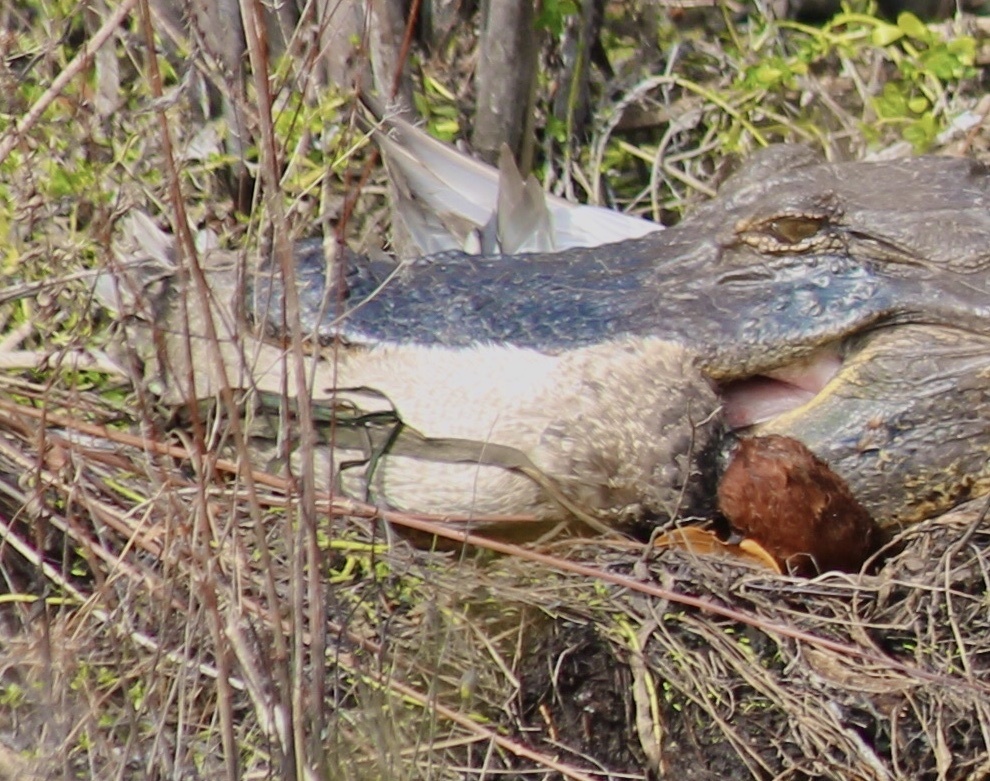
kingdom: Animalia
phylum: Chordata
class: Aves
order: Anseriformes
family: Anatidae
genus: Aythya
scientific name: Aythya americana
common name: Redhead
